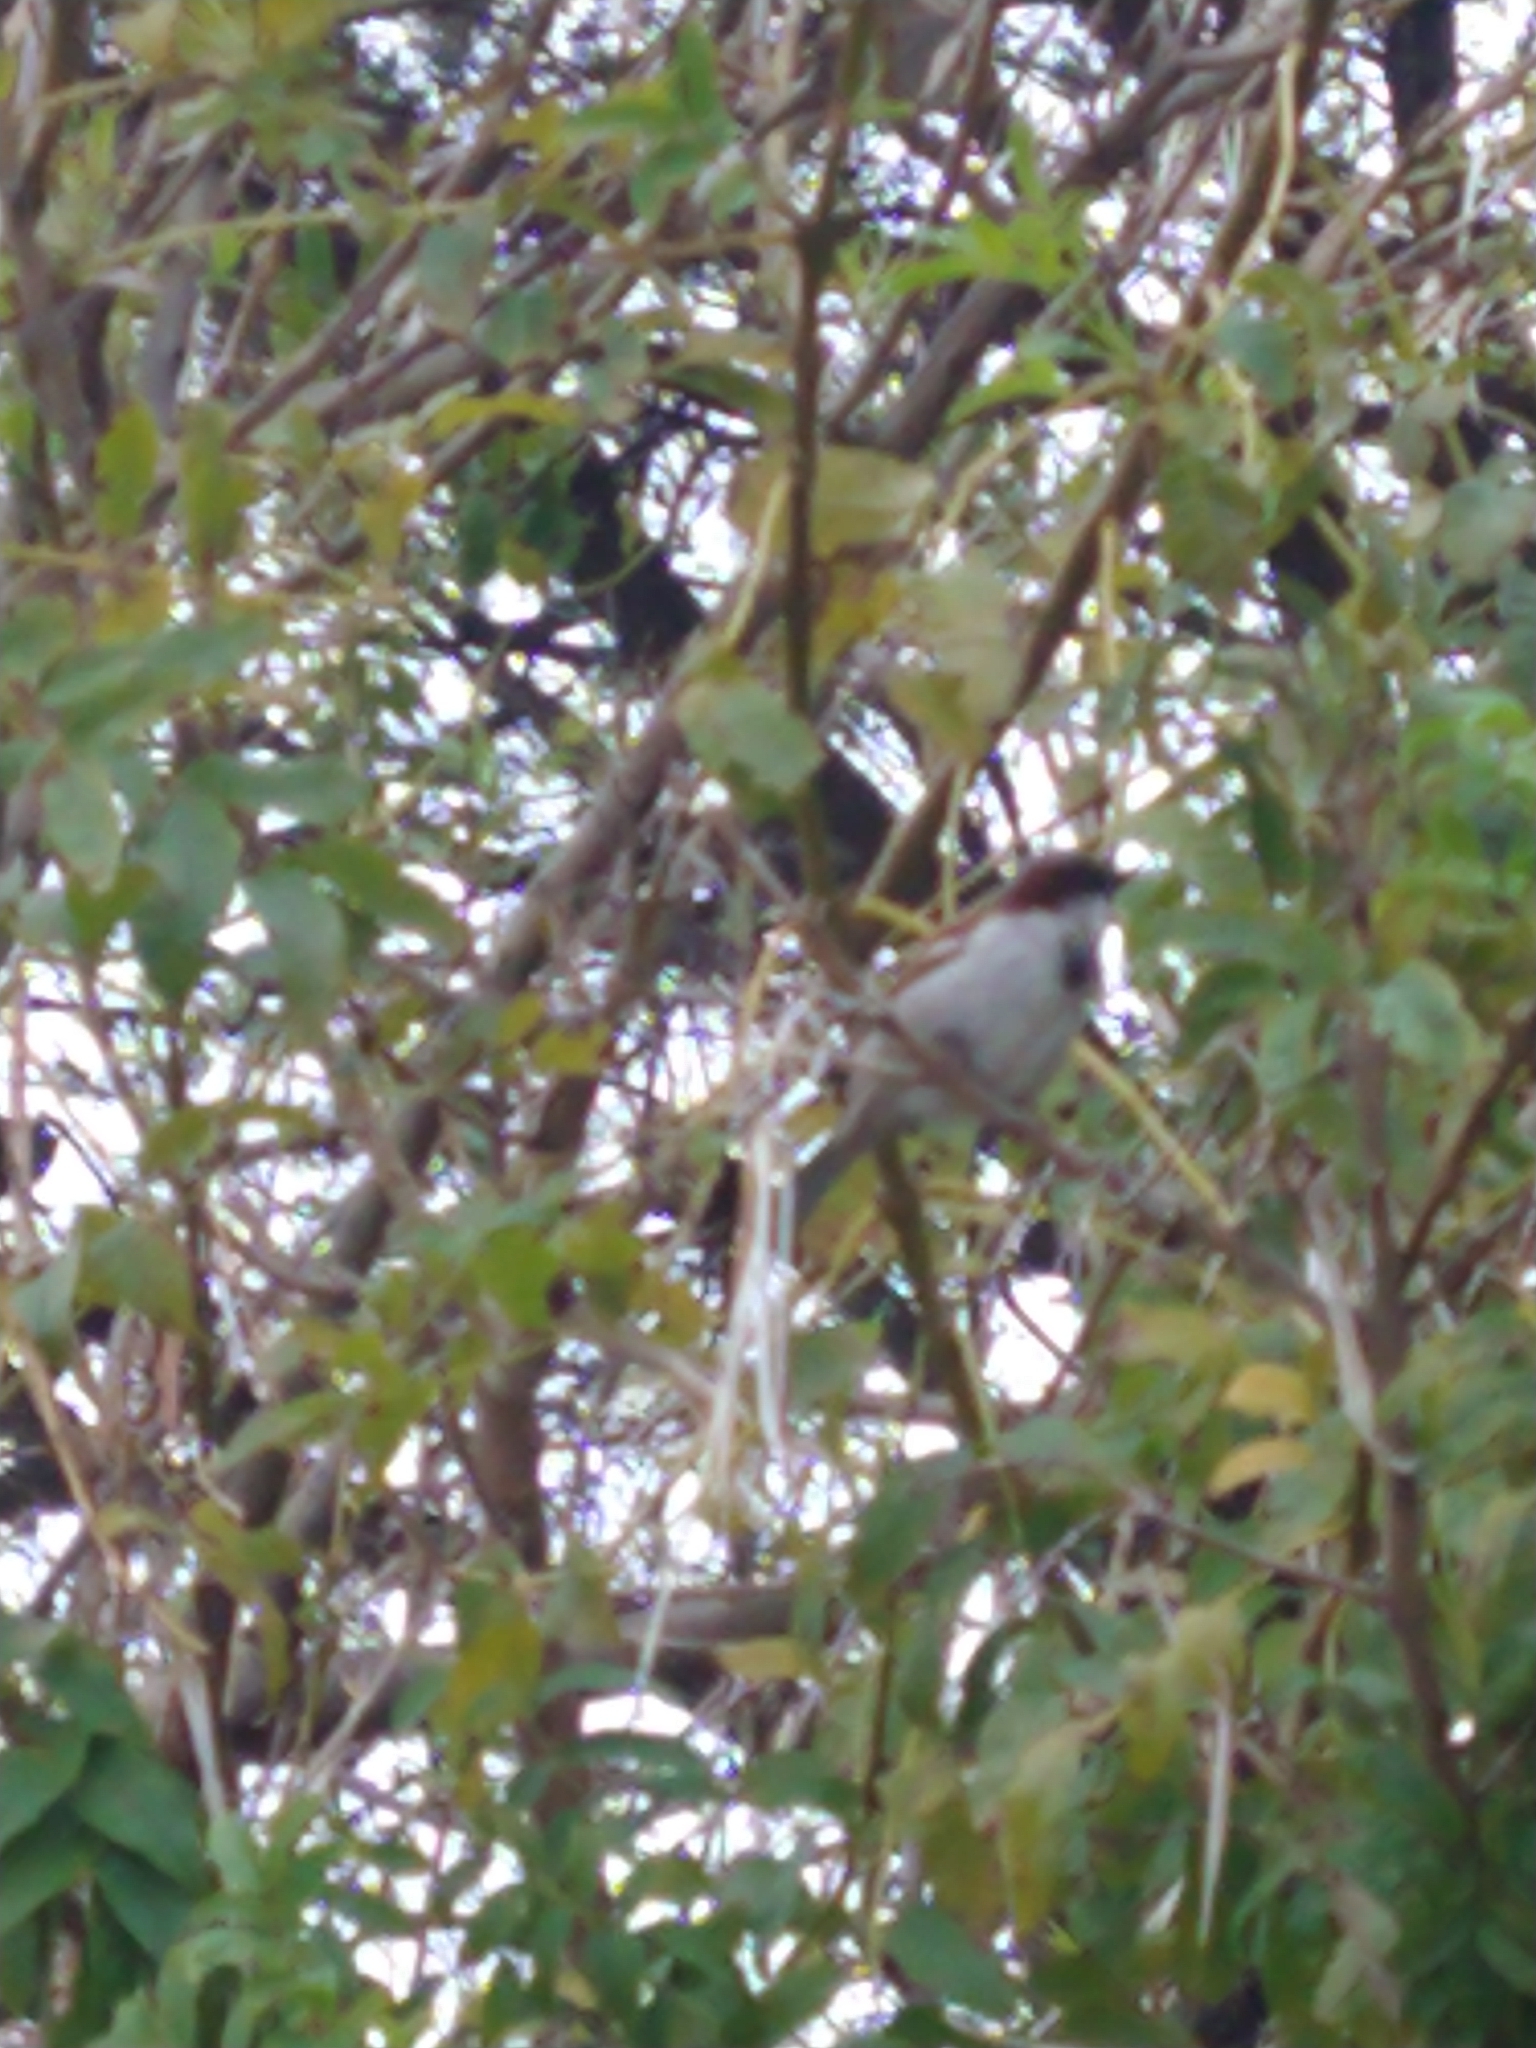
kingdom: Animalia
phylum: Chordata
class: Aves
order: Passeriformes
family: Passeridae
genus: Passer
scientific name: Passer domesticus
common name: House sparrow
